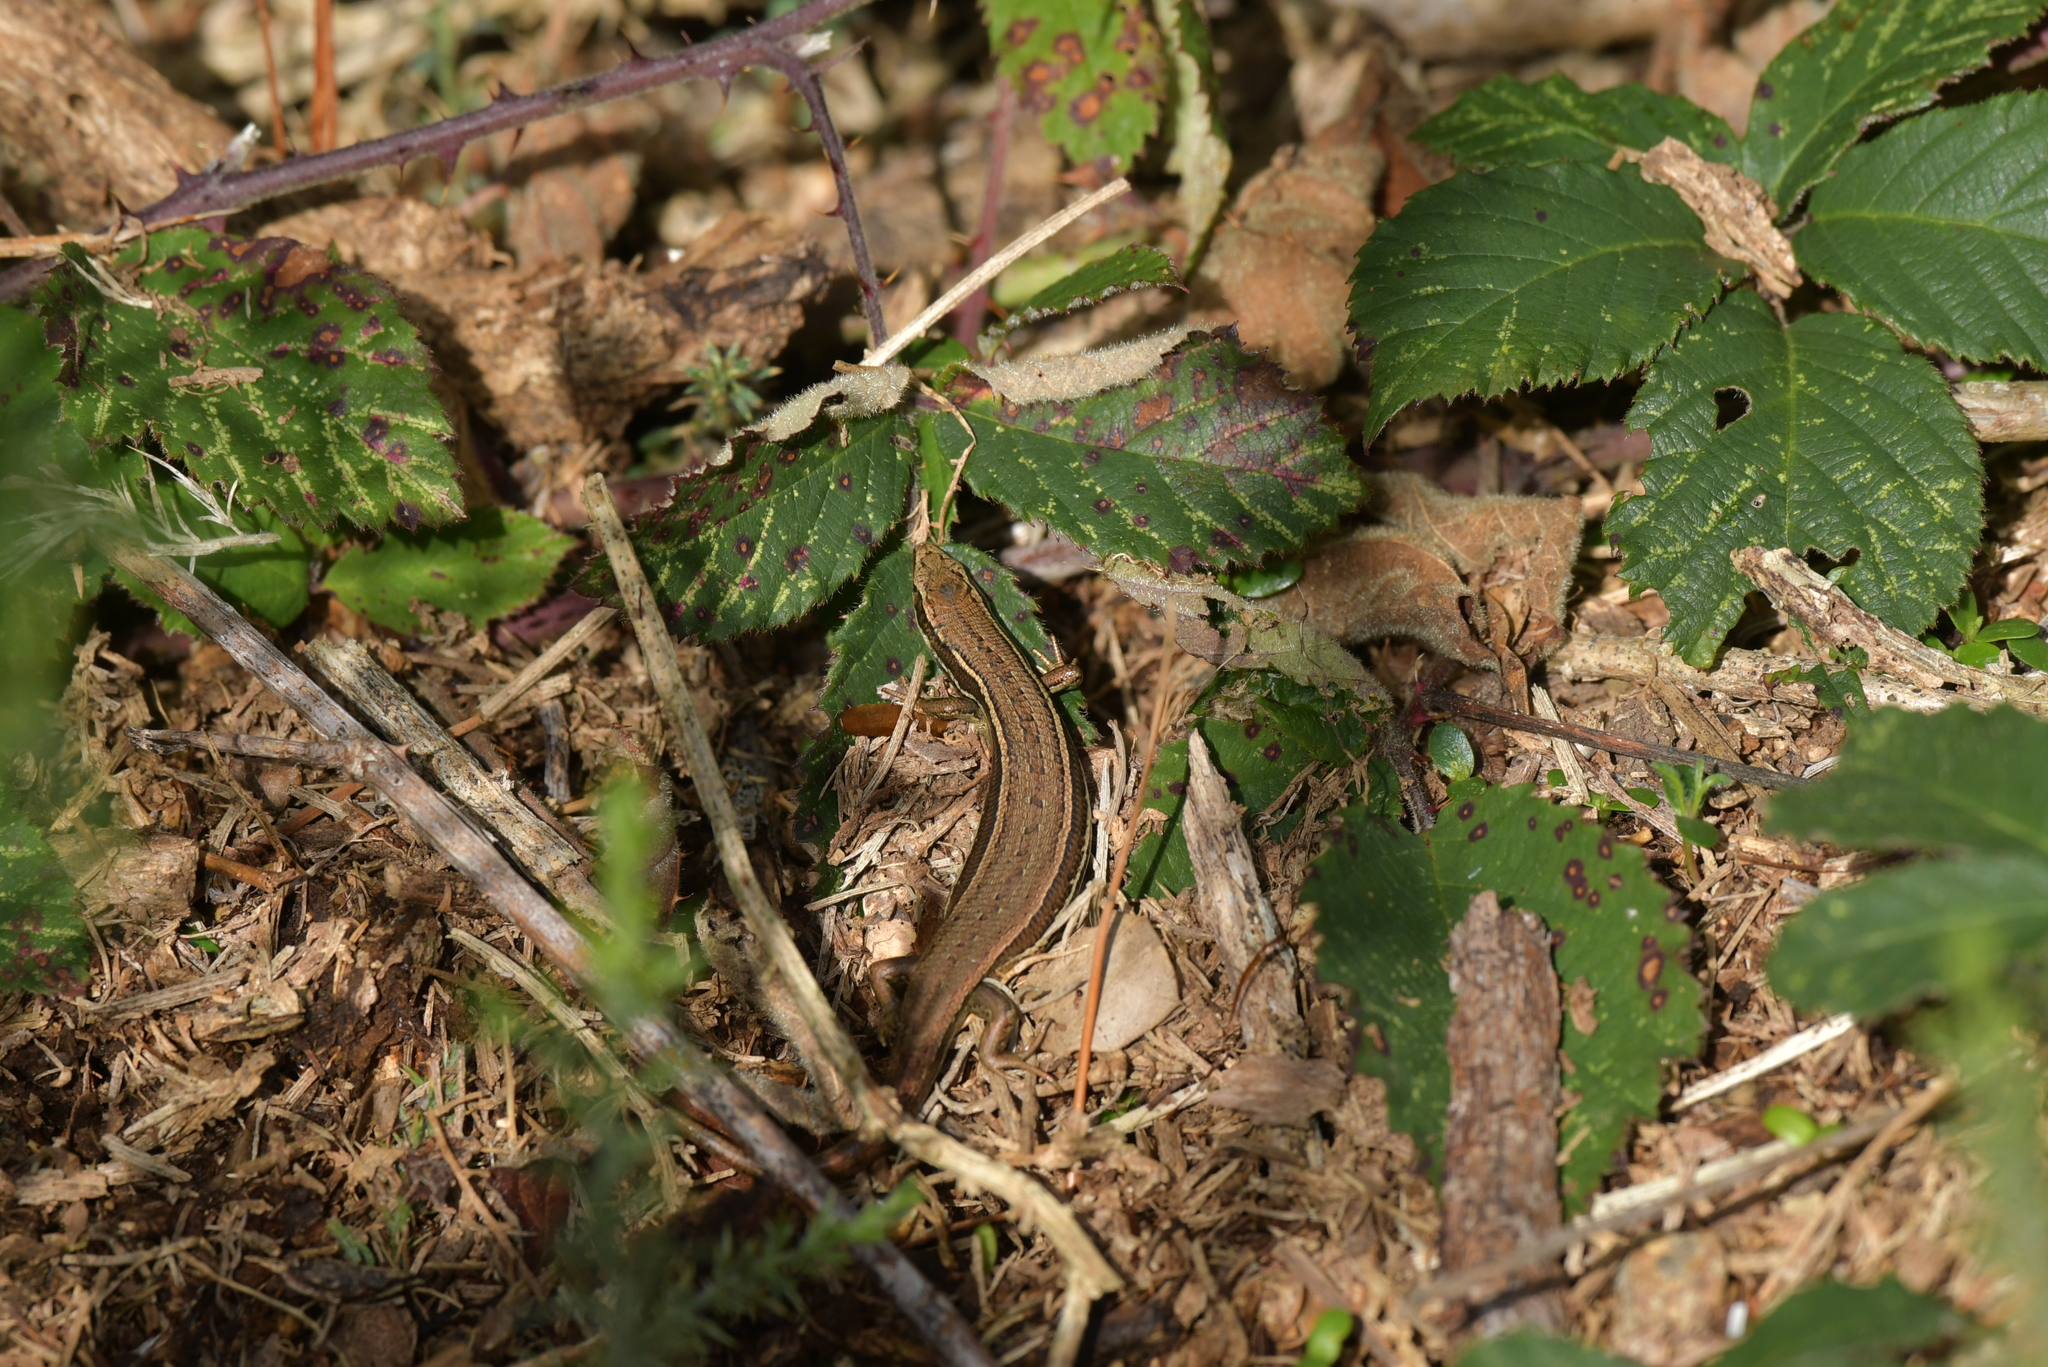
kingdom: Animalia
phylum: Chordata
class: Squamata
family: Scincidae
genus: Oligosoma
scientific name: Oligosoma polychroma
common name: Common new zealand skink
